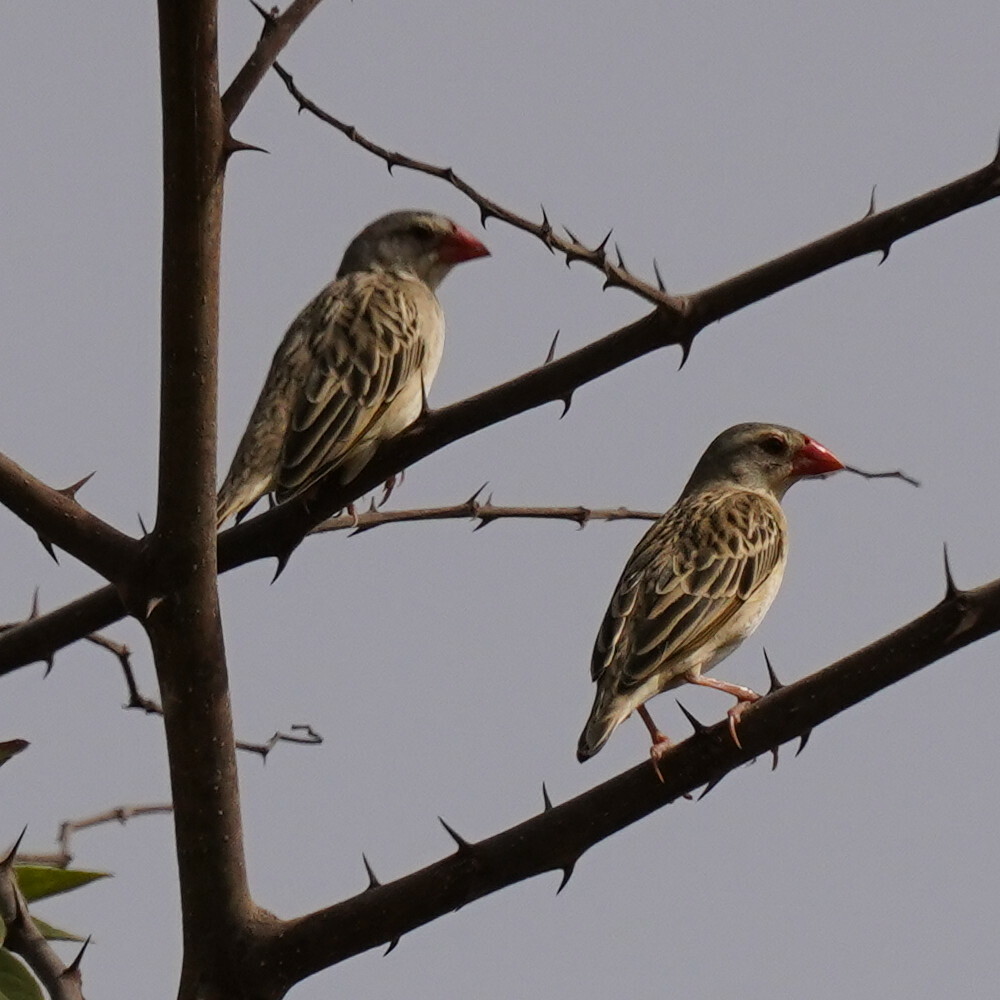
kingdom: Animalia
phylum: Chordata
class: Aves
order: Passeriformes
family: Ploceidae
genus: Quelea
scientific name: Quelea quelea
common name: Red-billed quelea
